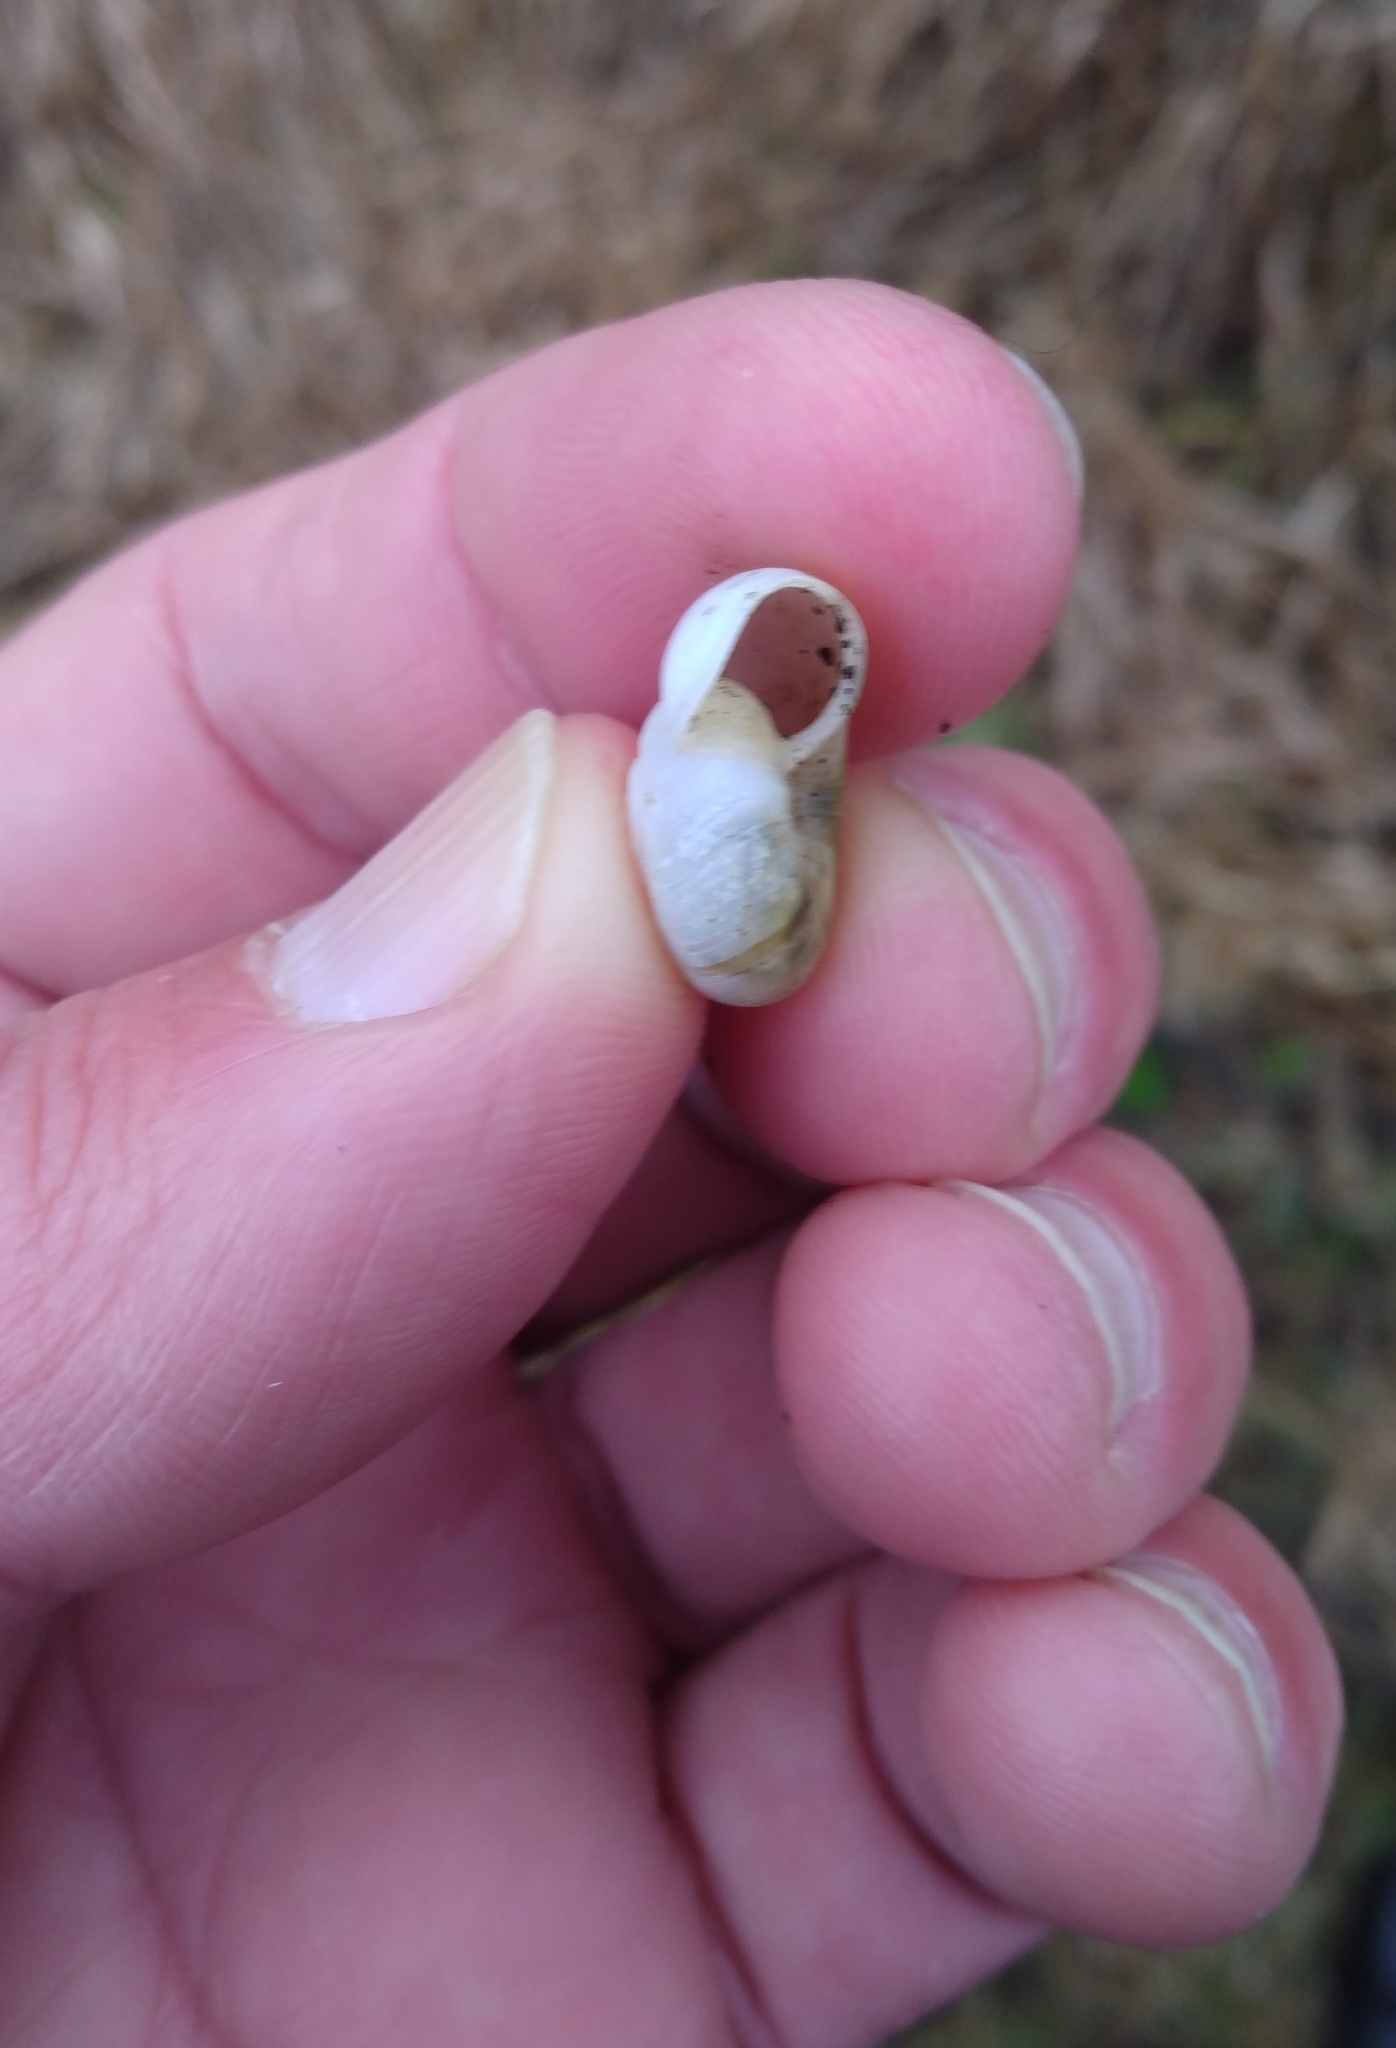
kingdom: Animalia
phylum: Mollusca
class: Gastropoda
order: Stylommatophora
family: Haplotrematidae
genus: Haplotrema
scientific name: Haplotrema minimum
